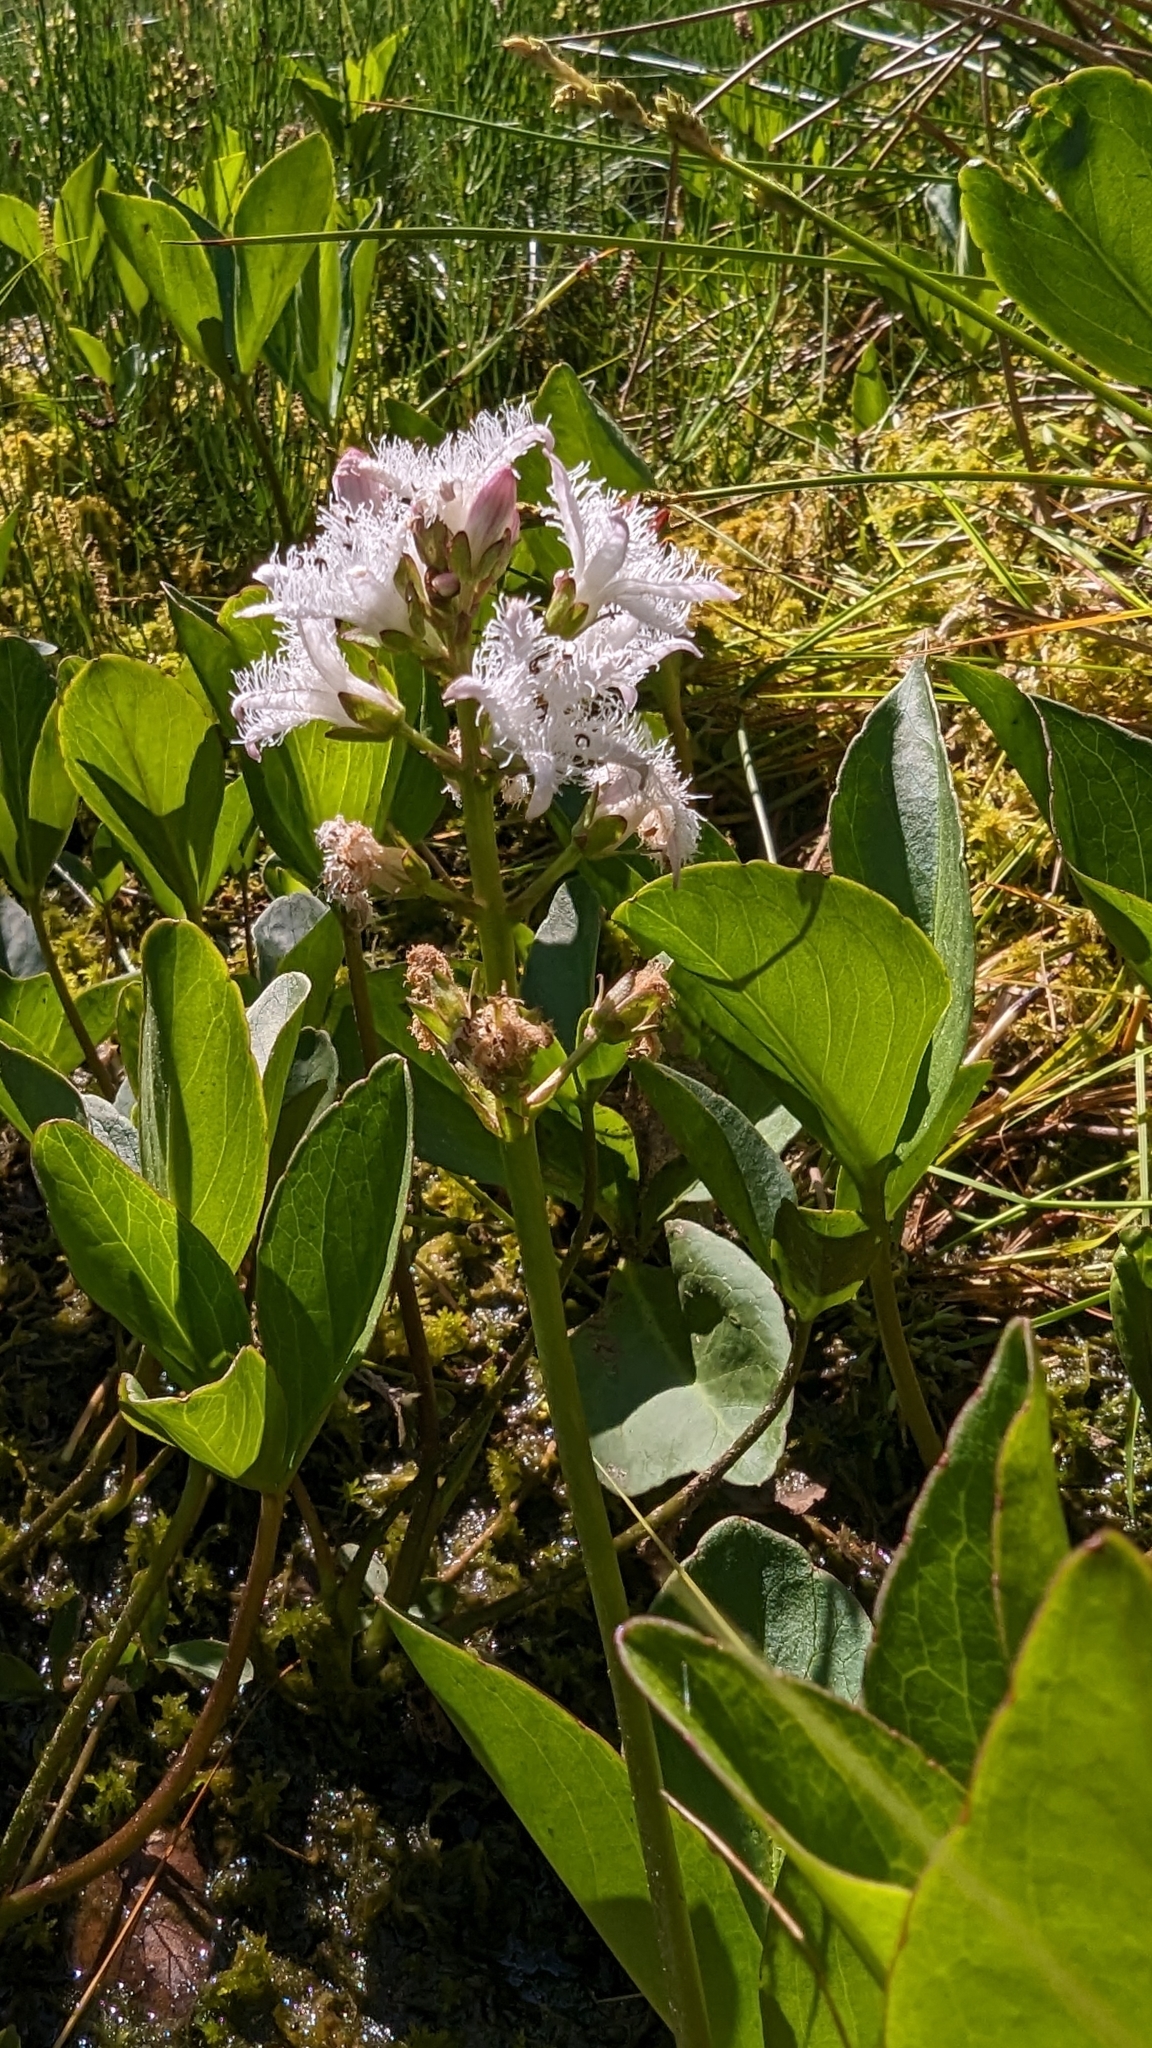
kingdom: Plantae
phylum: Tracheophyta
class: Magnoliopsida
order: Asterales
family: Menyanthaceae
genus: Menyanthes
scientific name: Menyanthes trifoliata
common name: Bogbean
